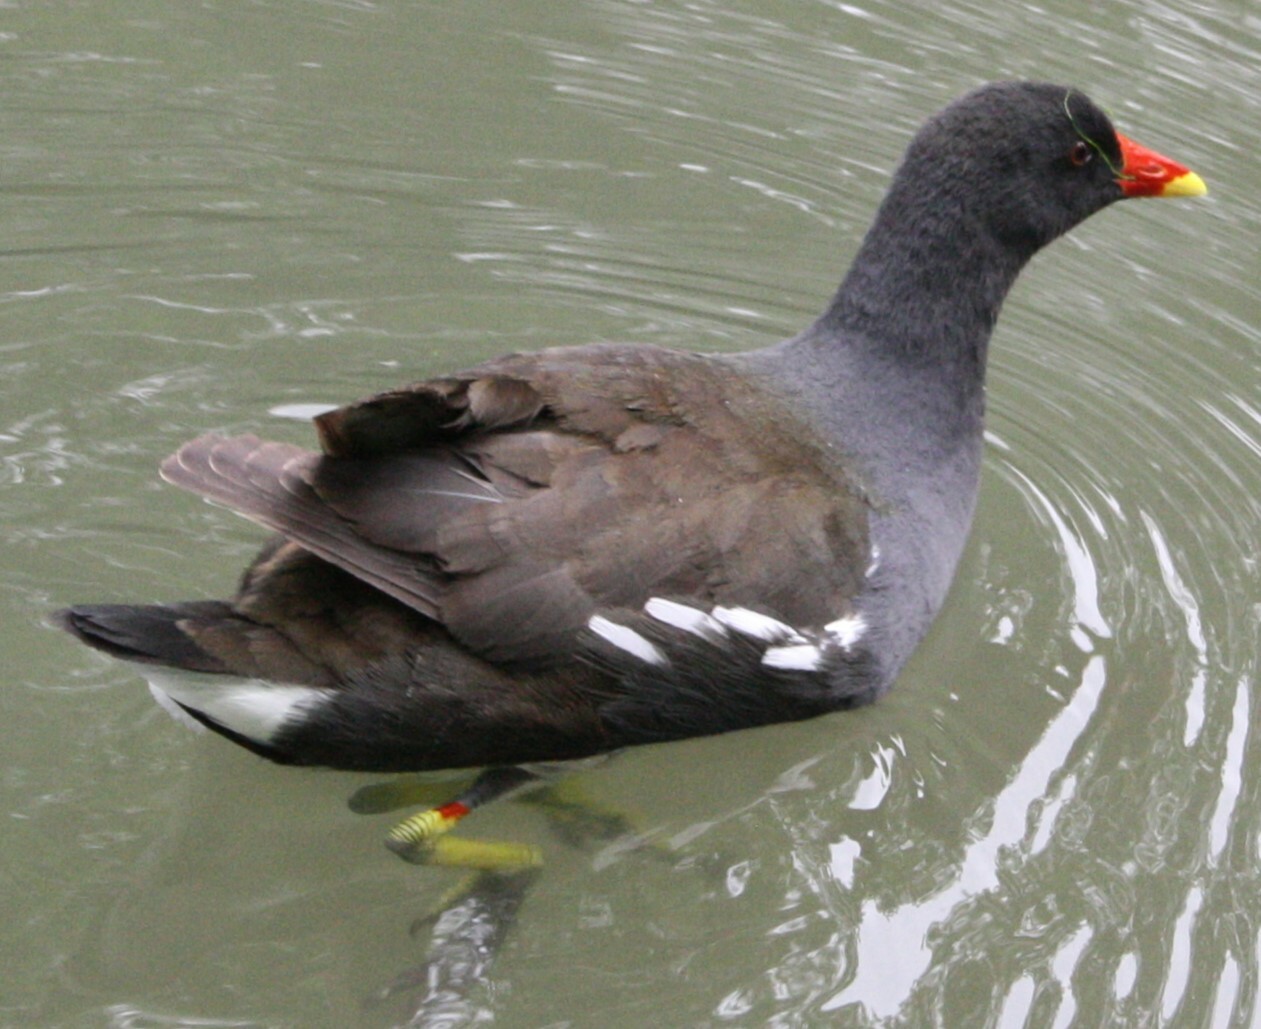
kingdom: Animalia
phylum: Chordata
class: Aves
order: Gruiformes
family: Rallidae
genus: Gallinula
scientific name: Gallinula chloropus
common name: Common moorhen
